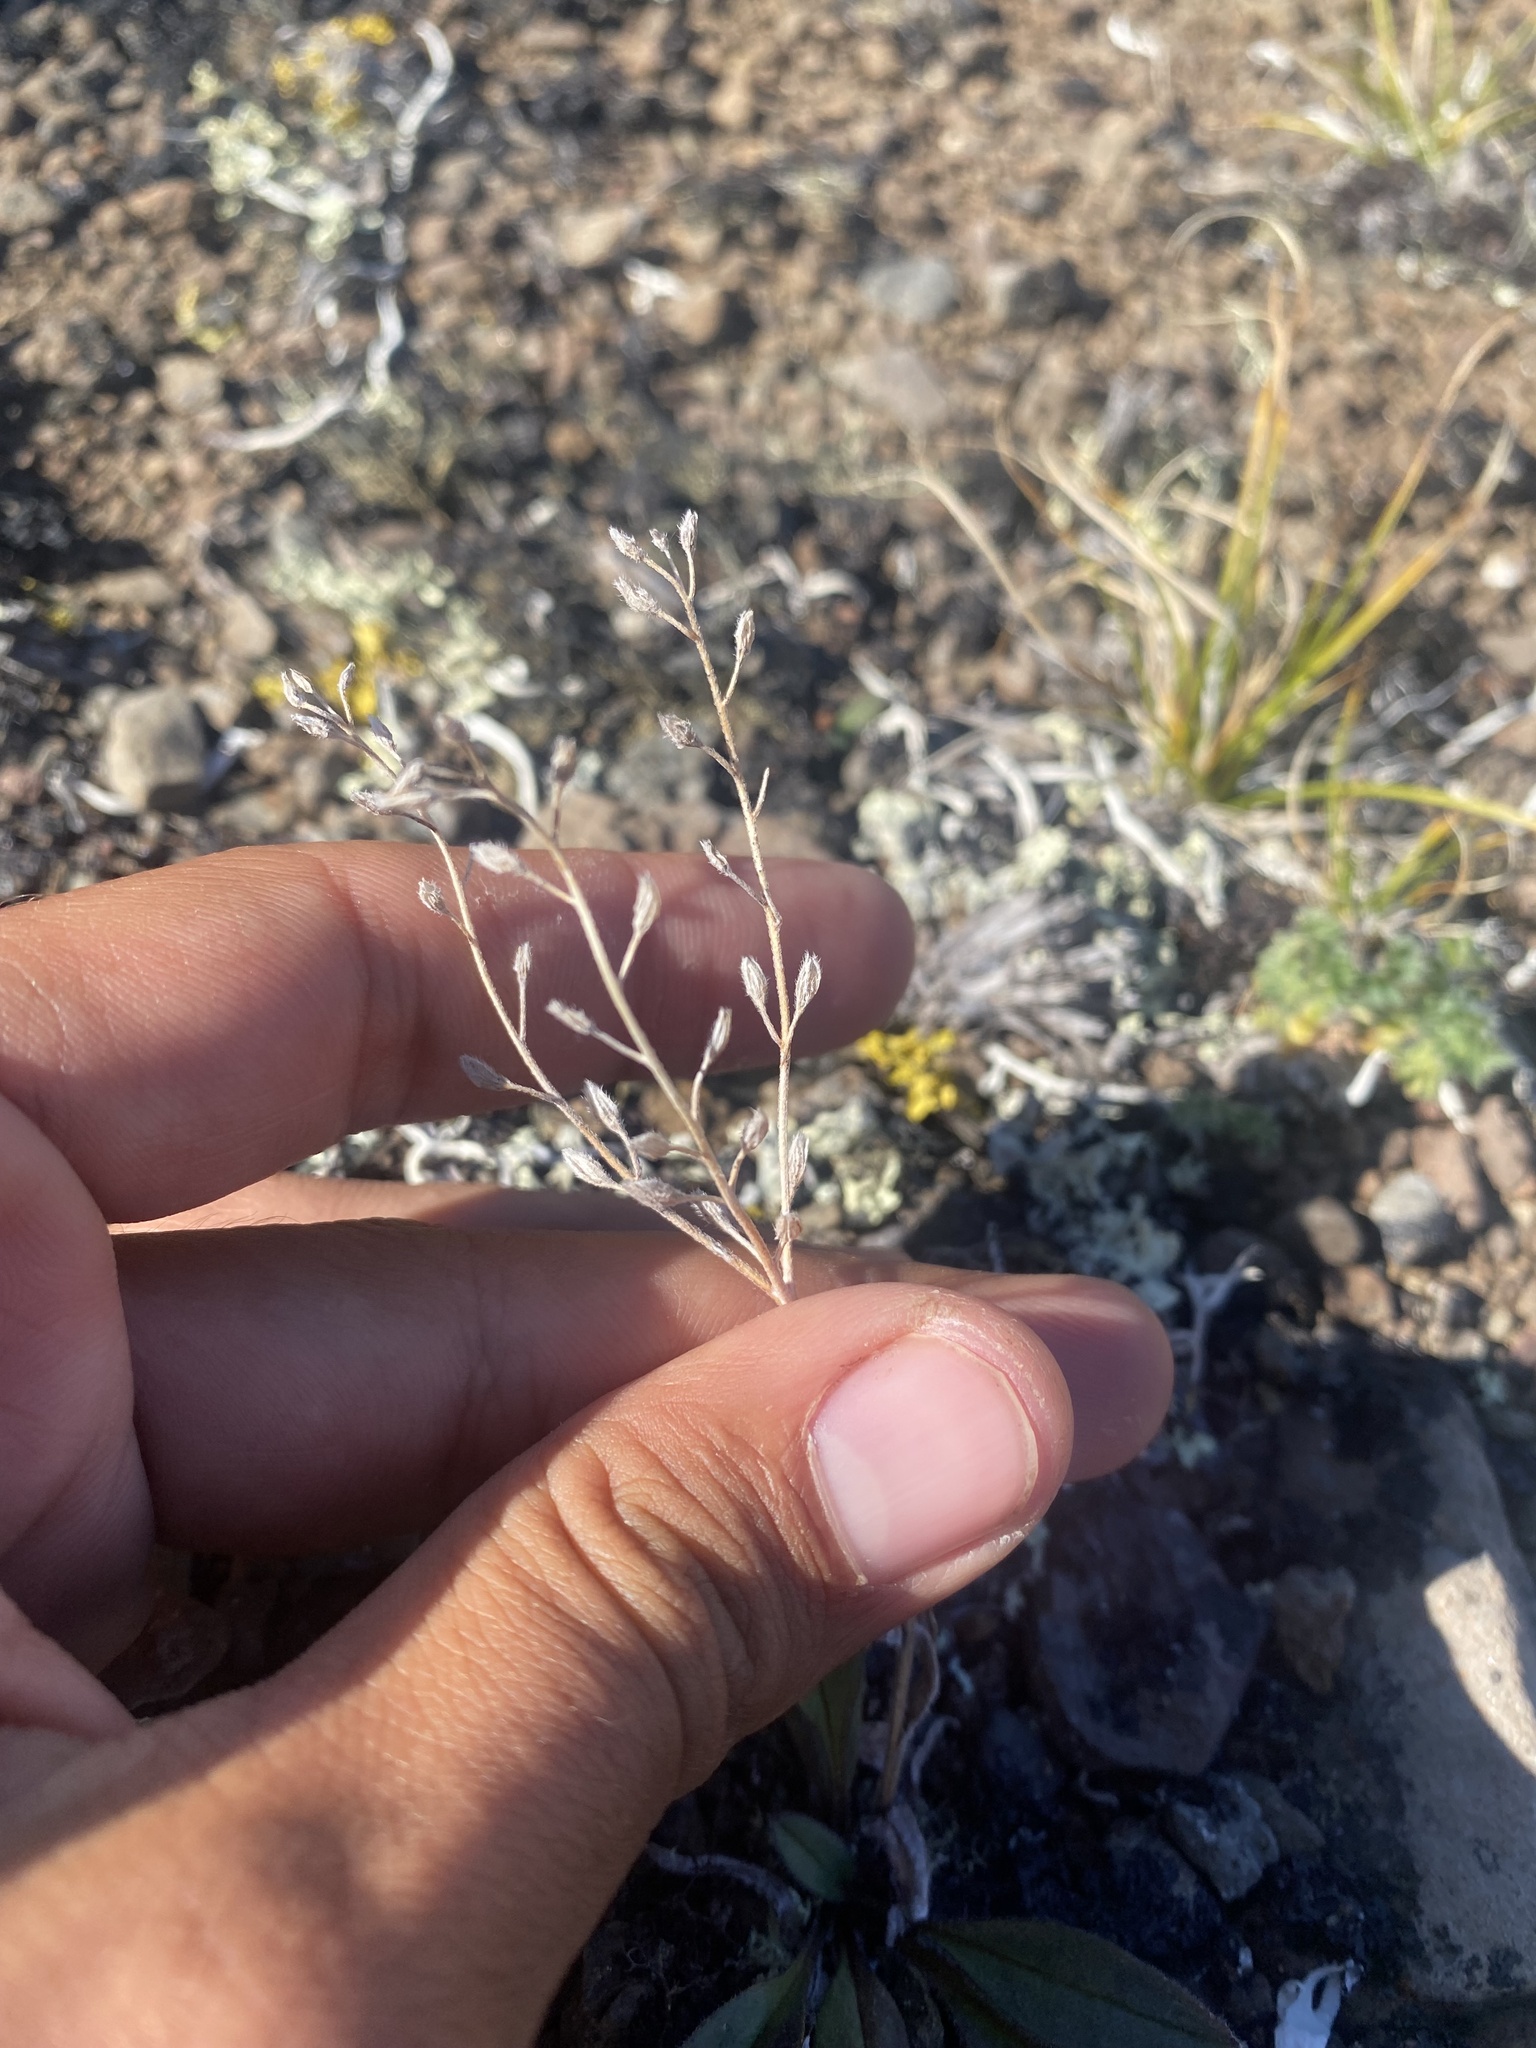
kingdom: Plantae
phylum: Tracheophyta
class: Magnoliopsida
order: Boraginales
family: Boraginaceae
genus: Myosotis
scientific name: Myosotis asiatica
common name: Asian forget-me-not
